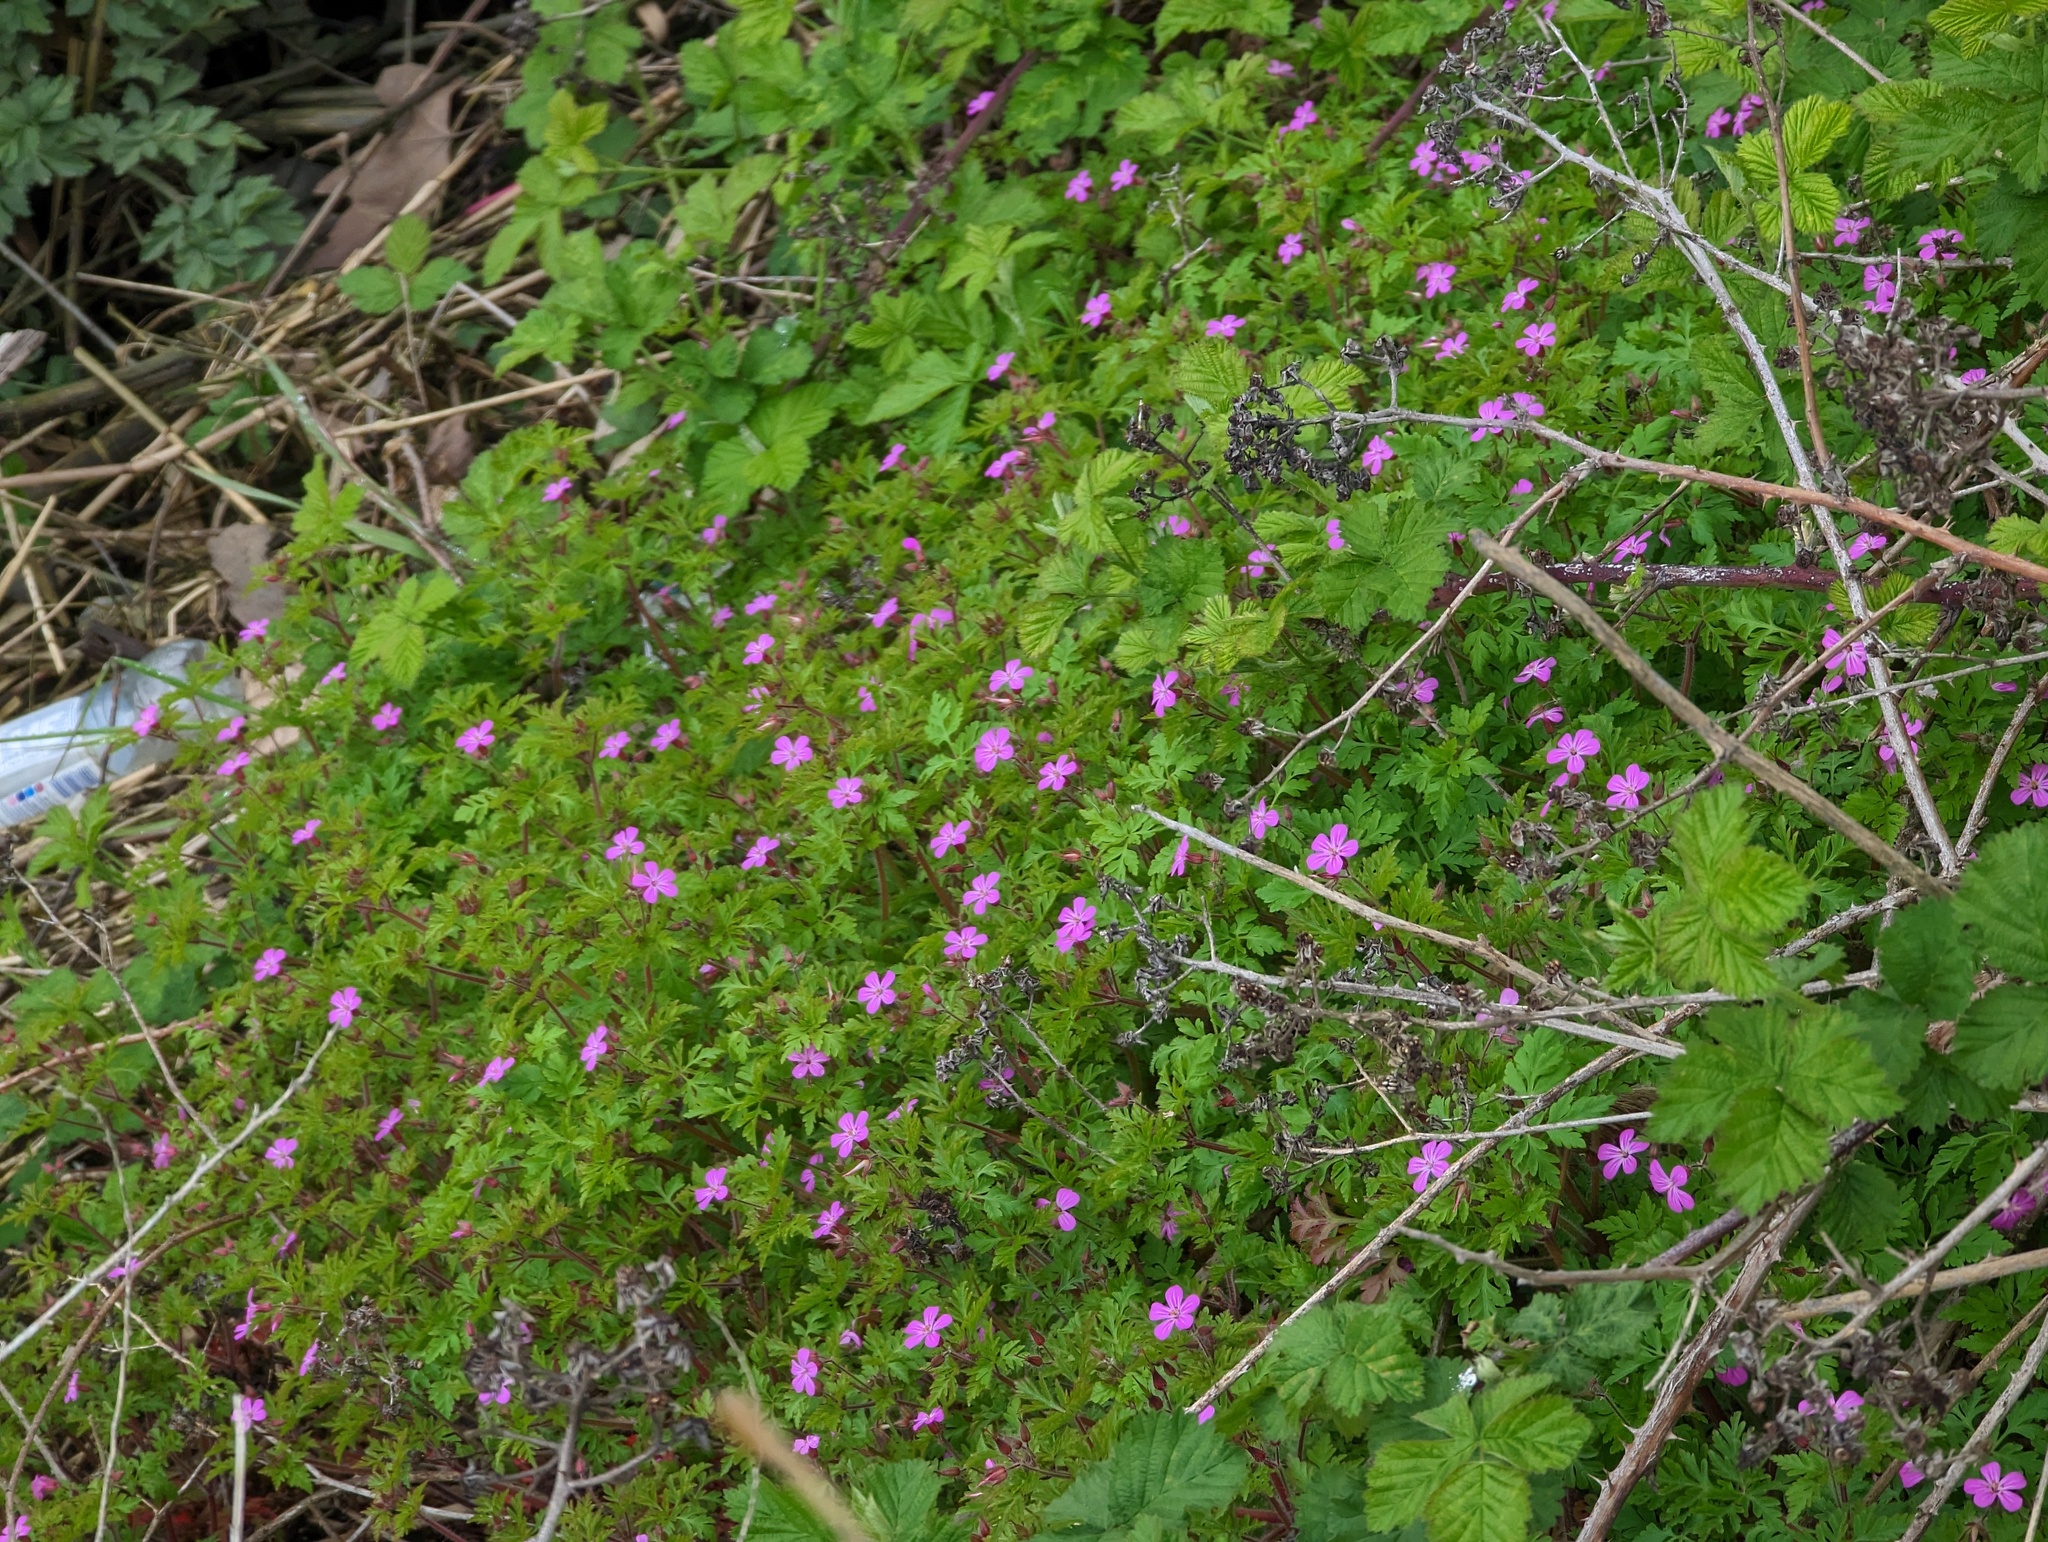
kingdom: Plantae
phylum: Tracheophyta
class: Magnoliopsida
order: Geraniales
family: Geraniaceae
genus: Geranium
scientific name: Geranium robertianum
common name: Herb-robert
